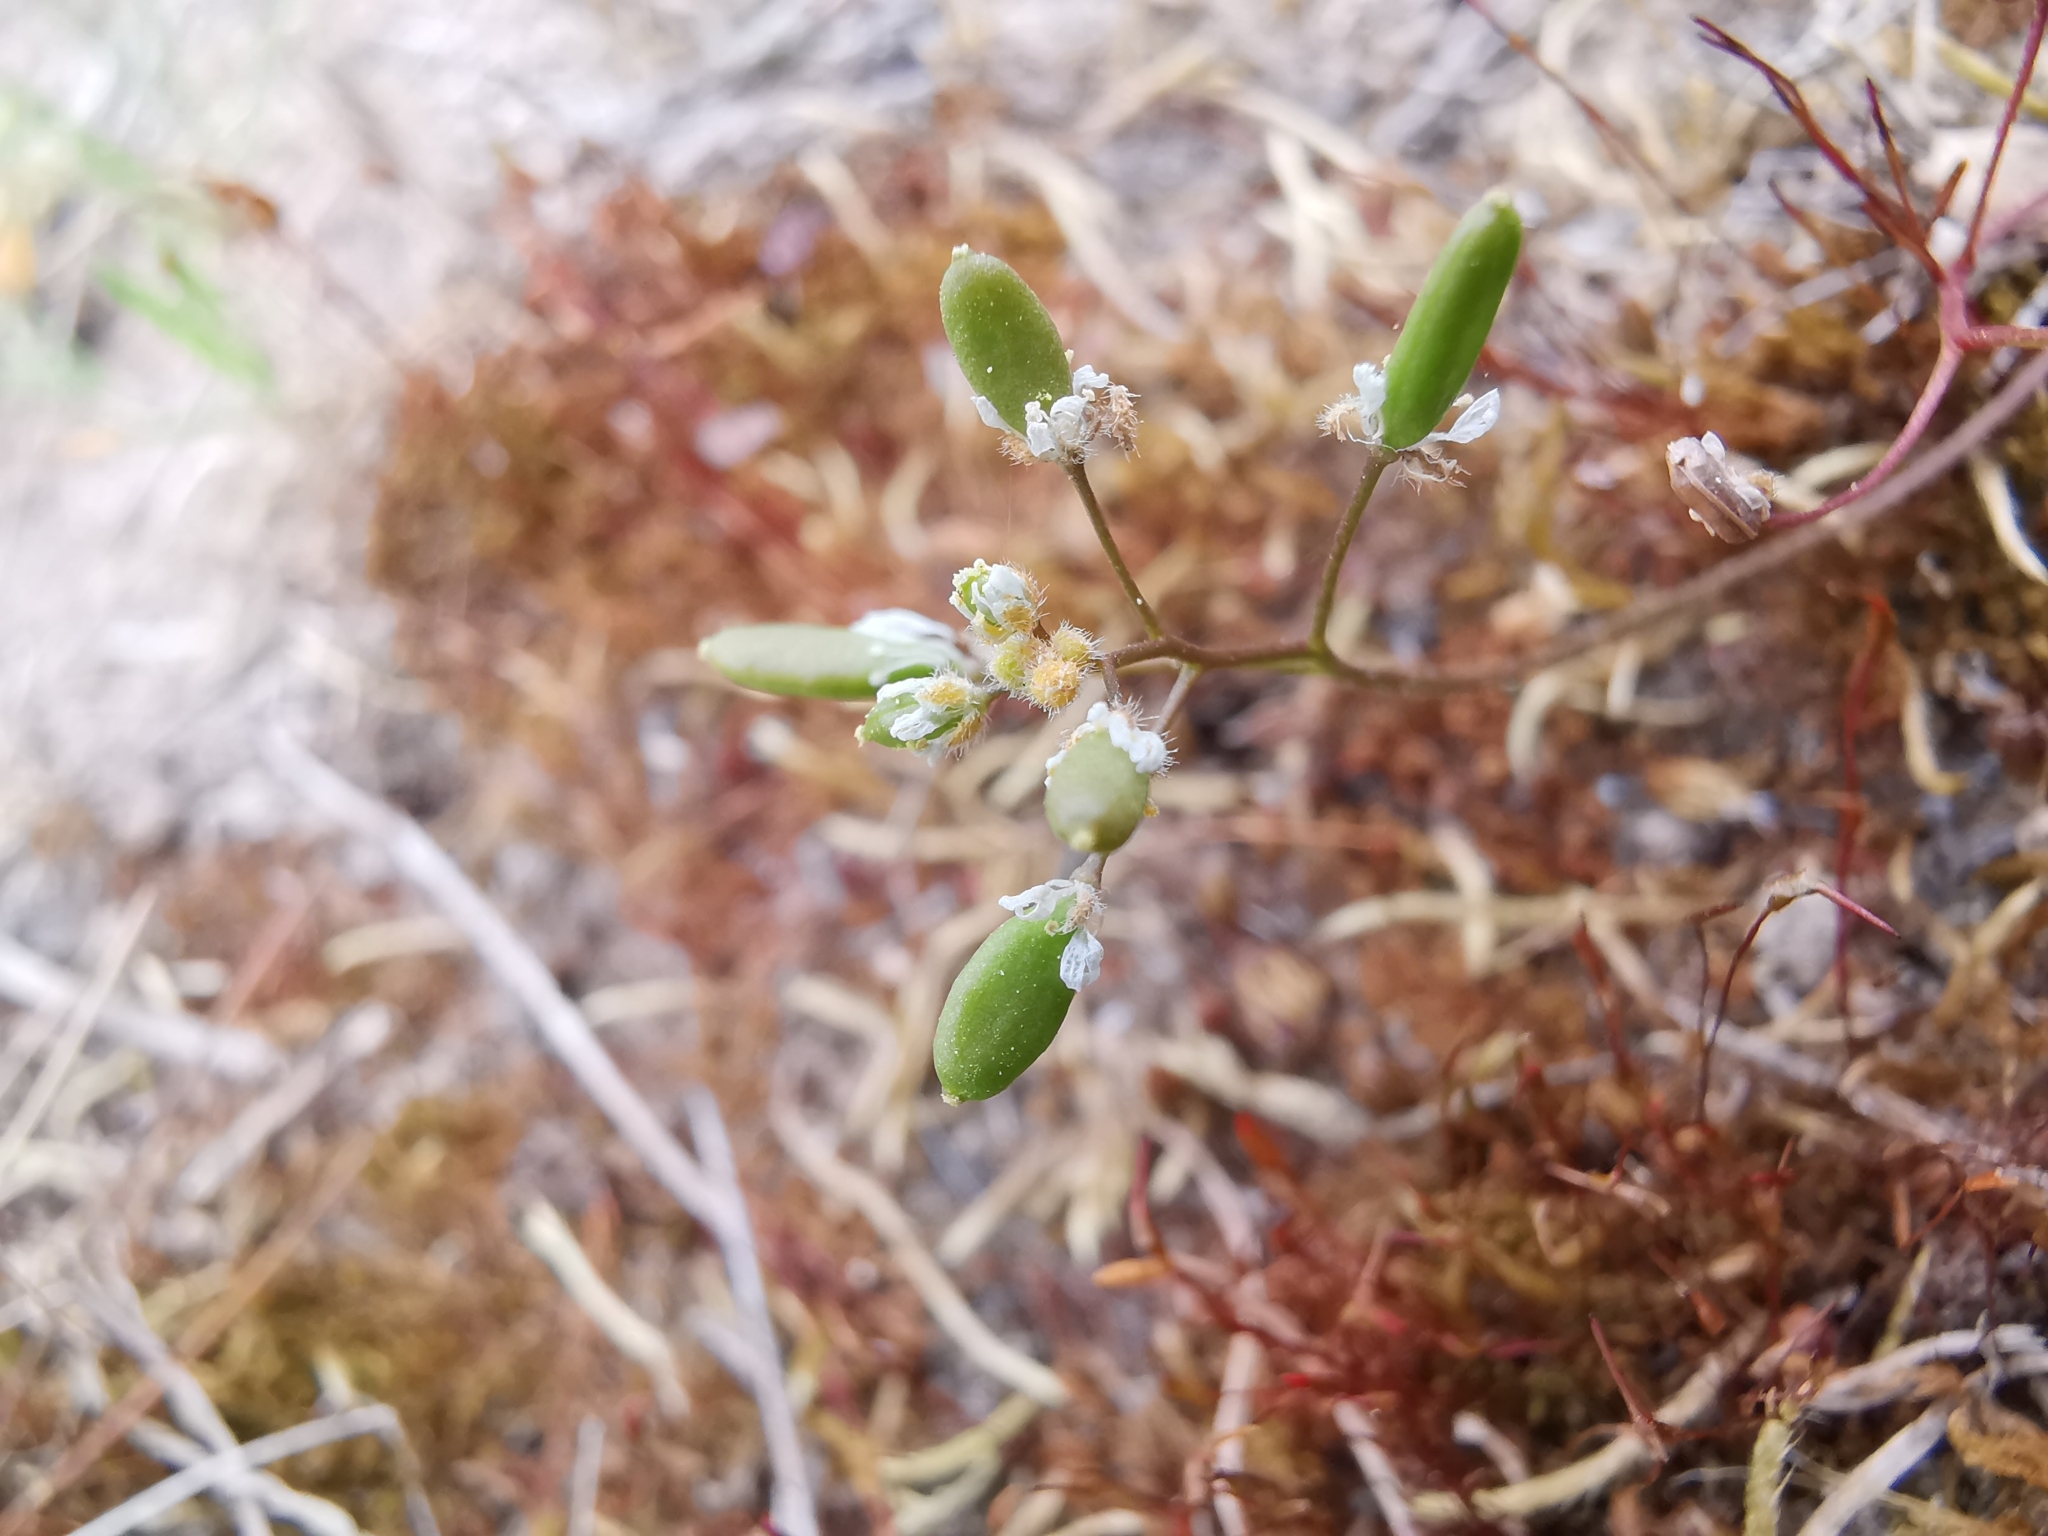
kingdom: Plantae
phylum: Tracheophyta
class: Magnoliopsida
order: Brassicales
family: Brassicaceae
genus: Draba
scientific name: Draba verna
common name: Spring draba
